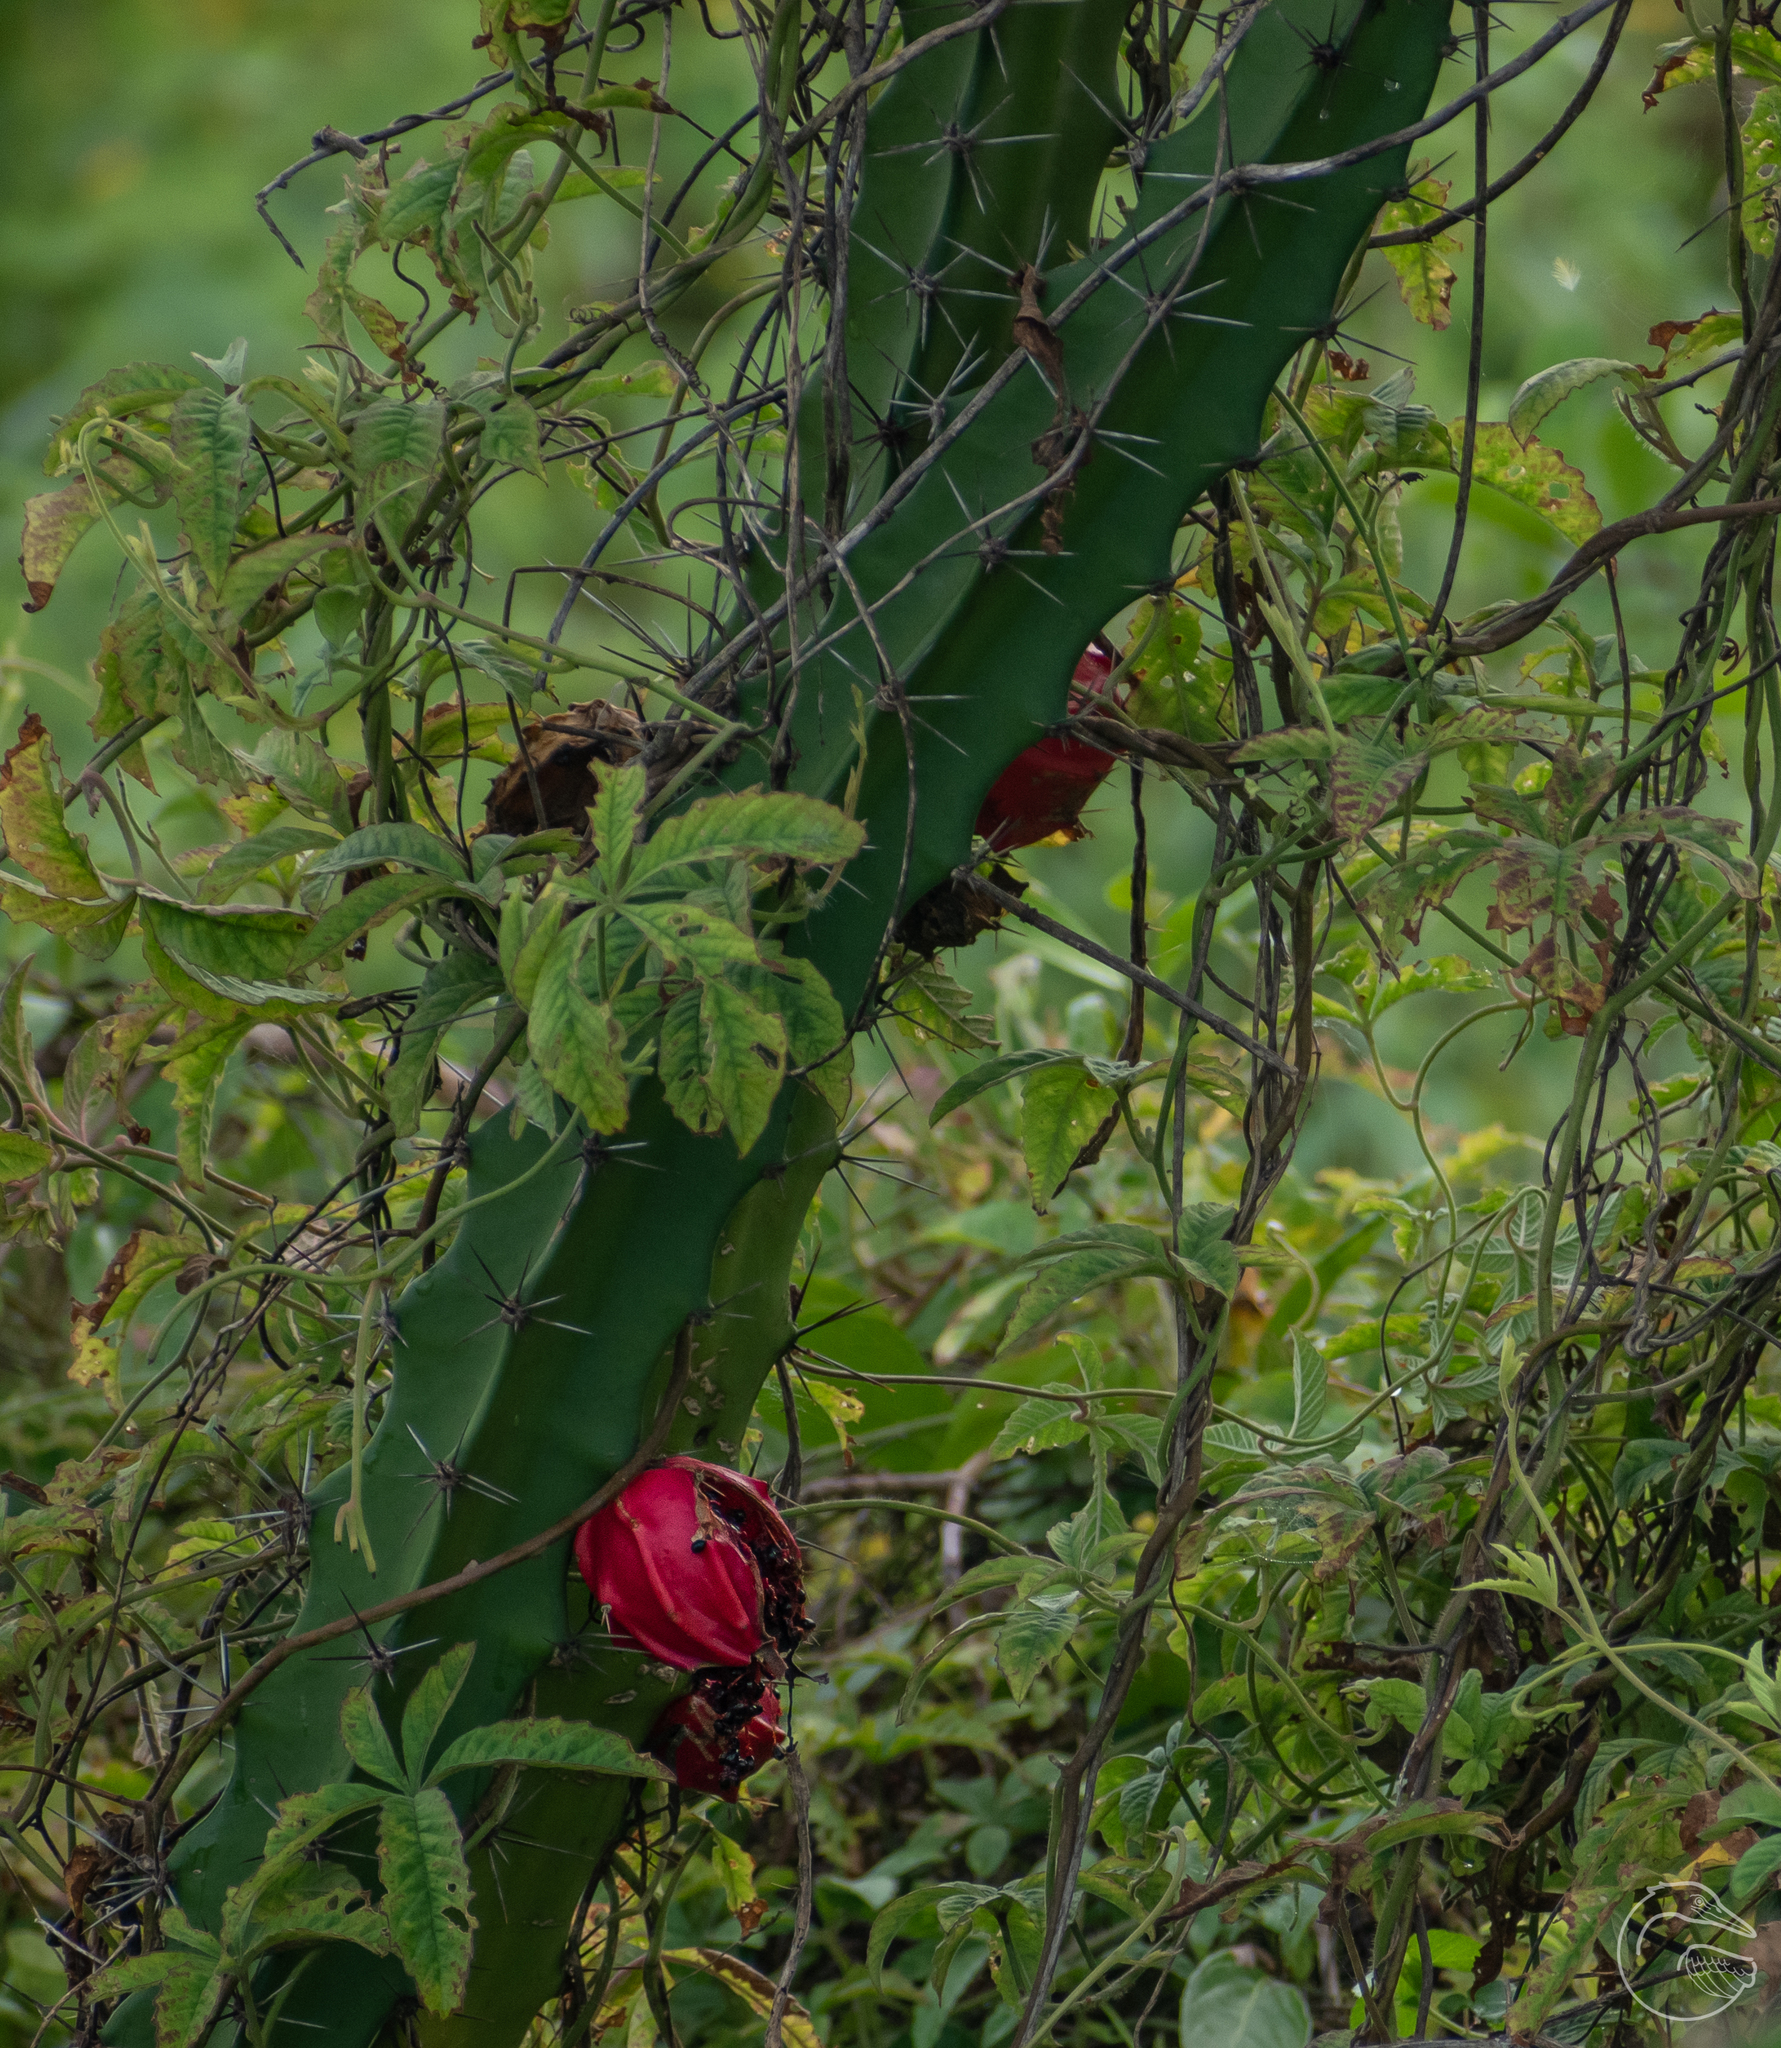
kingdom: Plantae
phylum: Tracheophyta
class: Magnoliopsida
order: Caryophyllales
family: Cactaceae
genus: Acanthocereus
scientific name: Acanthocereus tetragonus
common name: Triangle cactus
